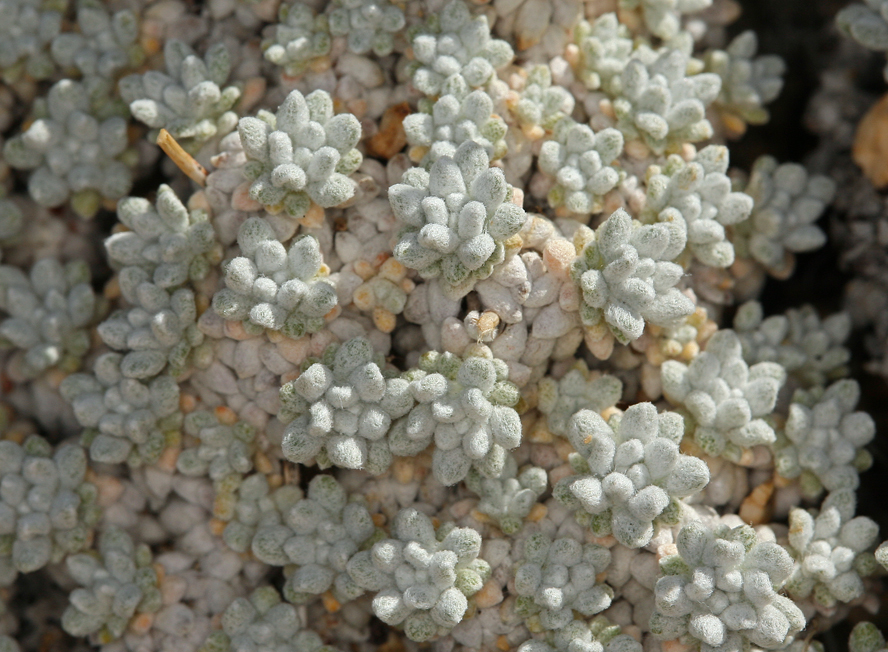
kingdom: Plantae
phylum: Tracheophyta
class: Magnoliopsida
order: Caryophyllales
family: Polygonaceae
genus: Eriogonum
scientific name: Eriogonum kennedyi
